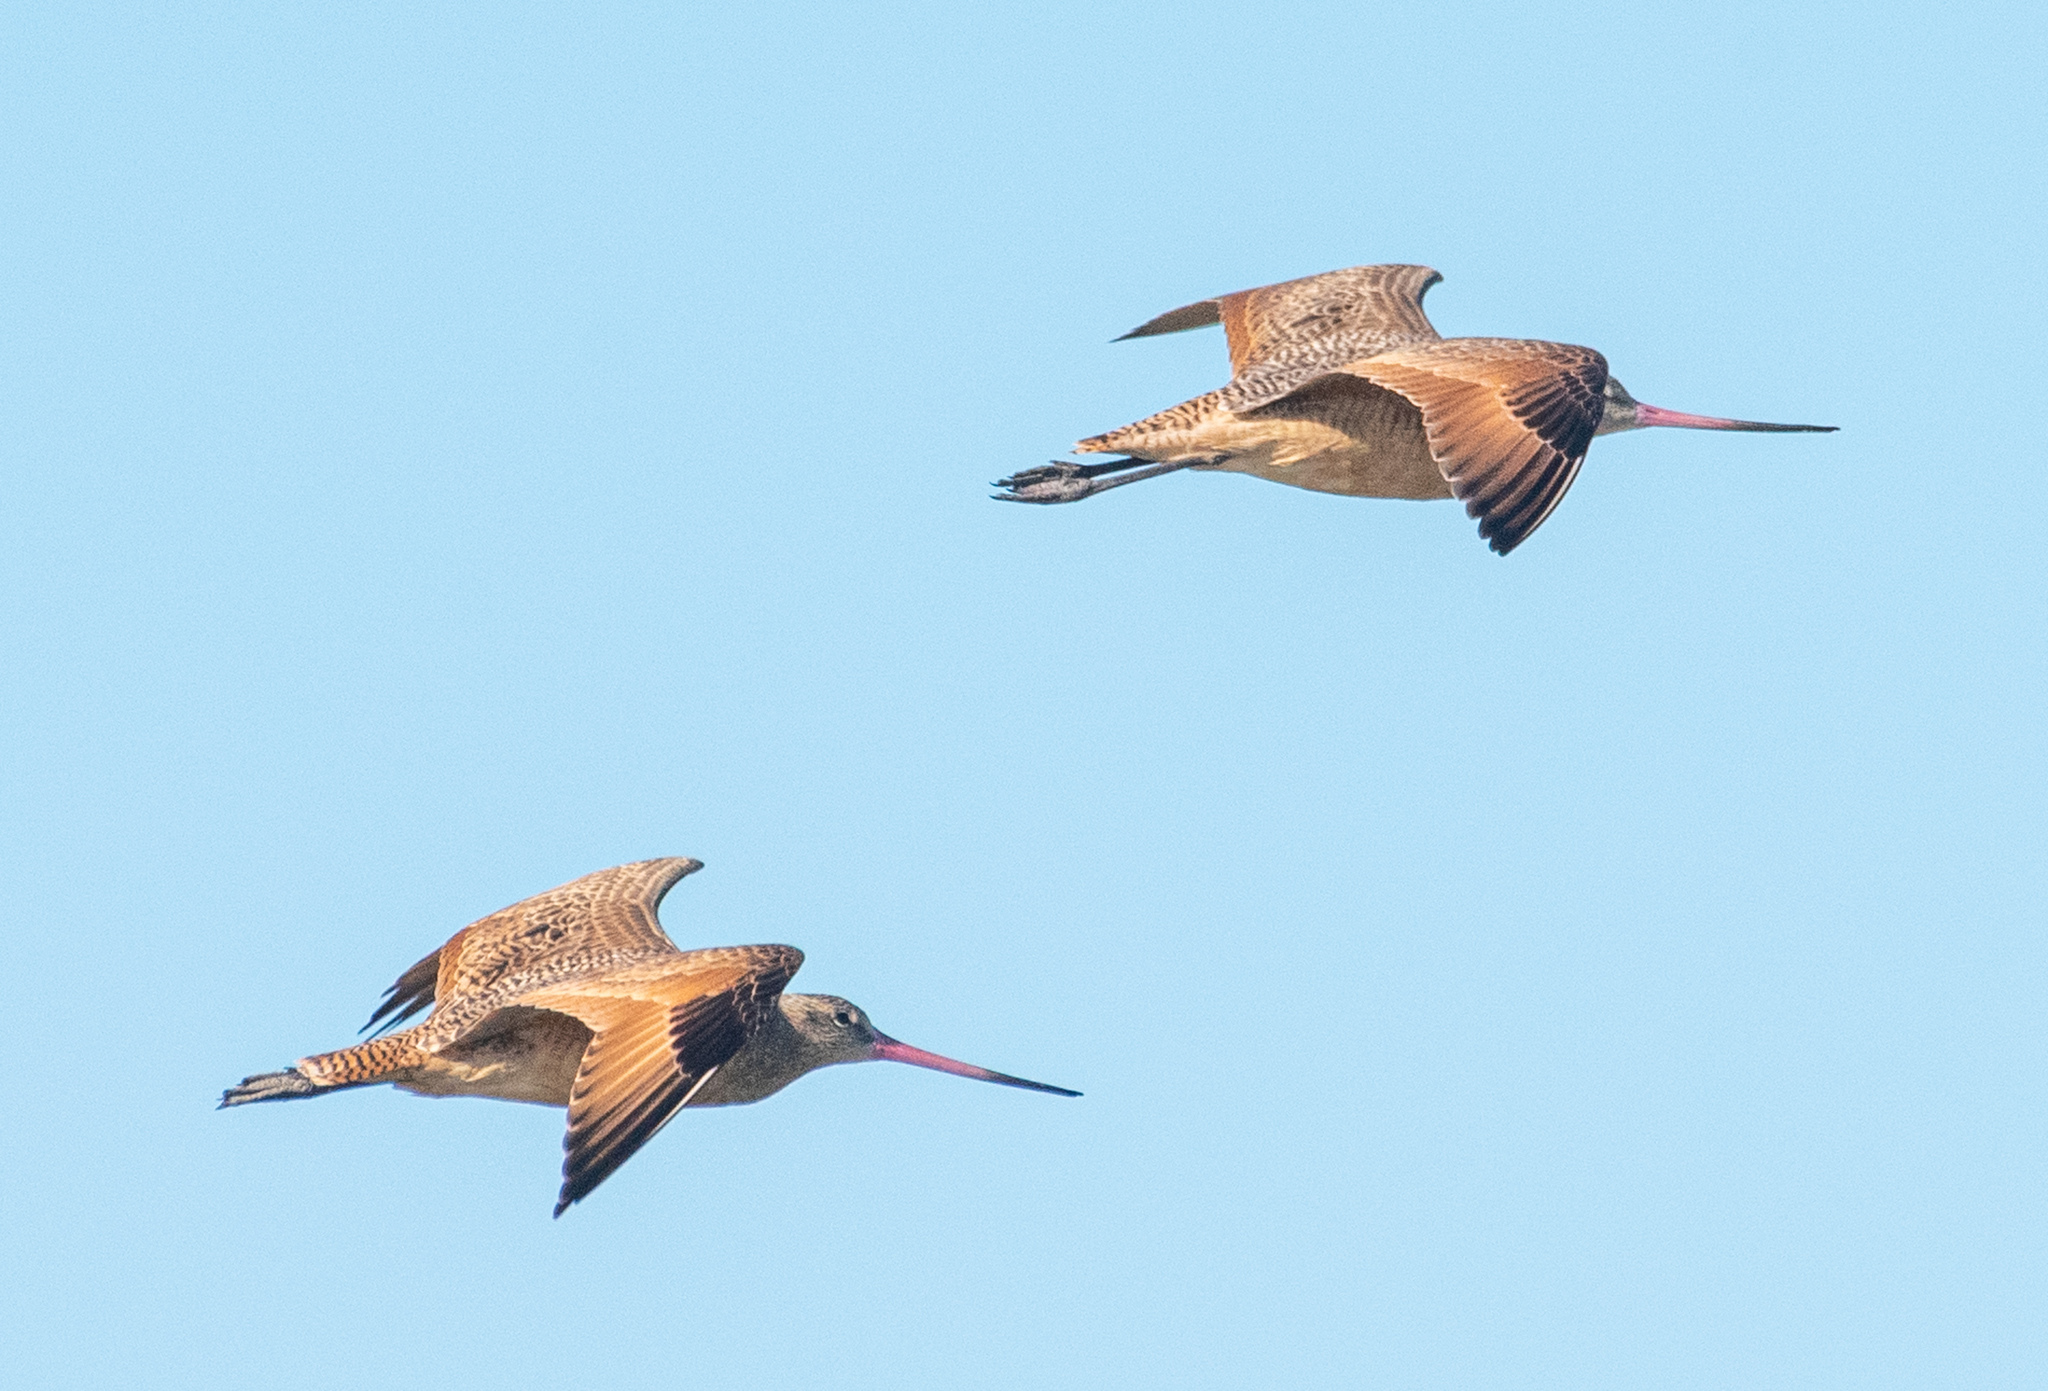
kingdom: Animalia
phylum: Chordata
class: Aves
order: Charadriiformes
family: Scolopacidae
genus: Limosa
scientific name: Limosa fedoa
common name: Marbled godwit
